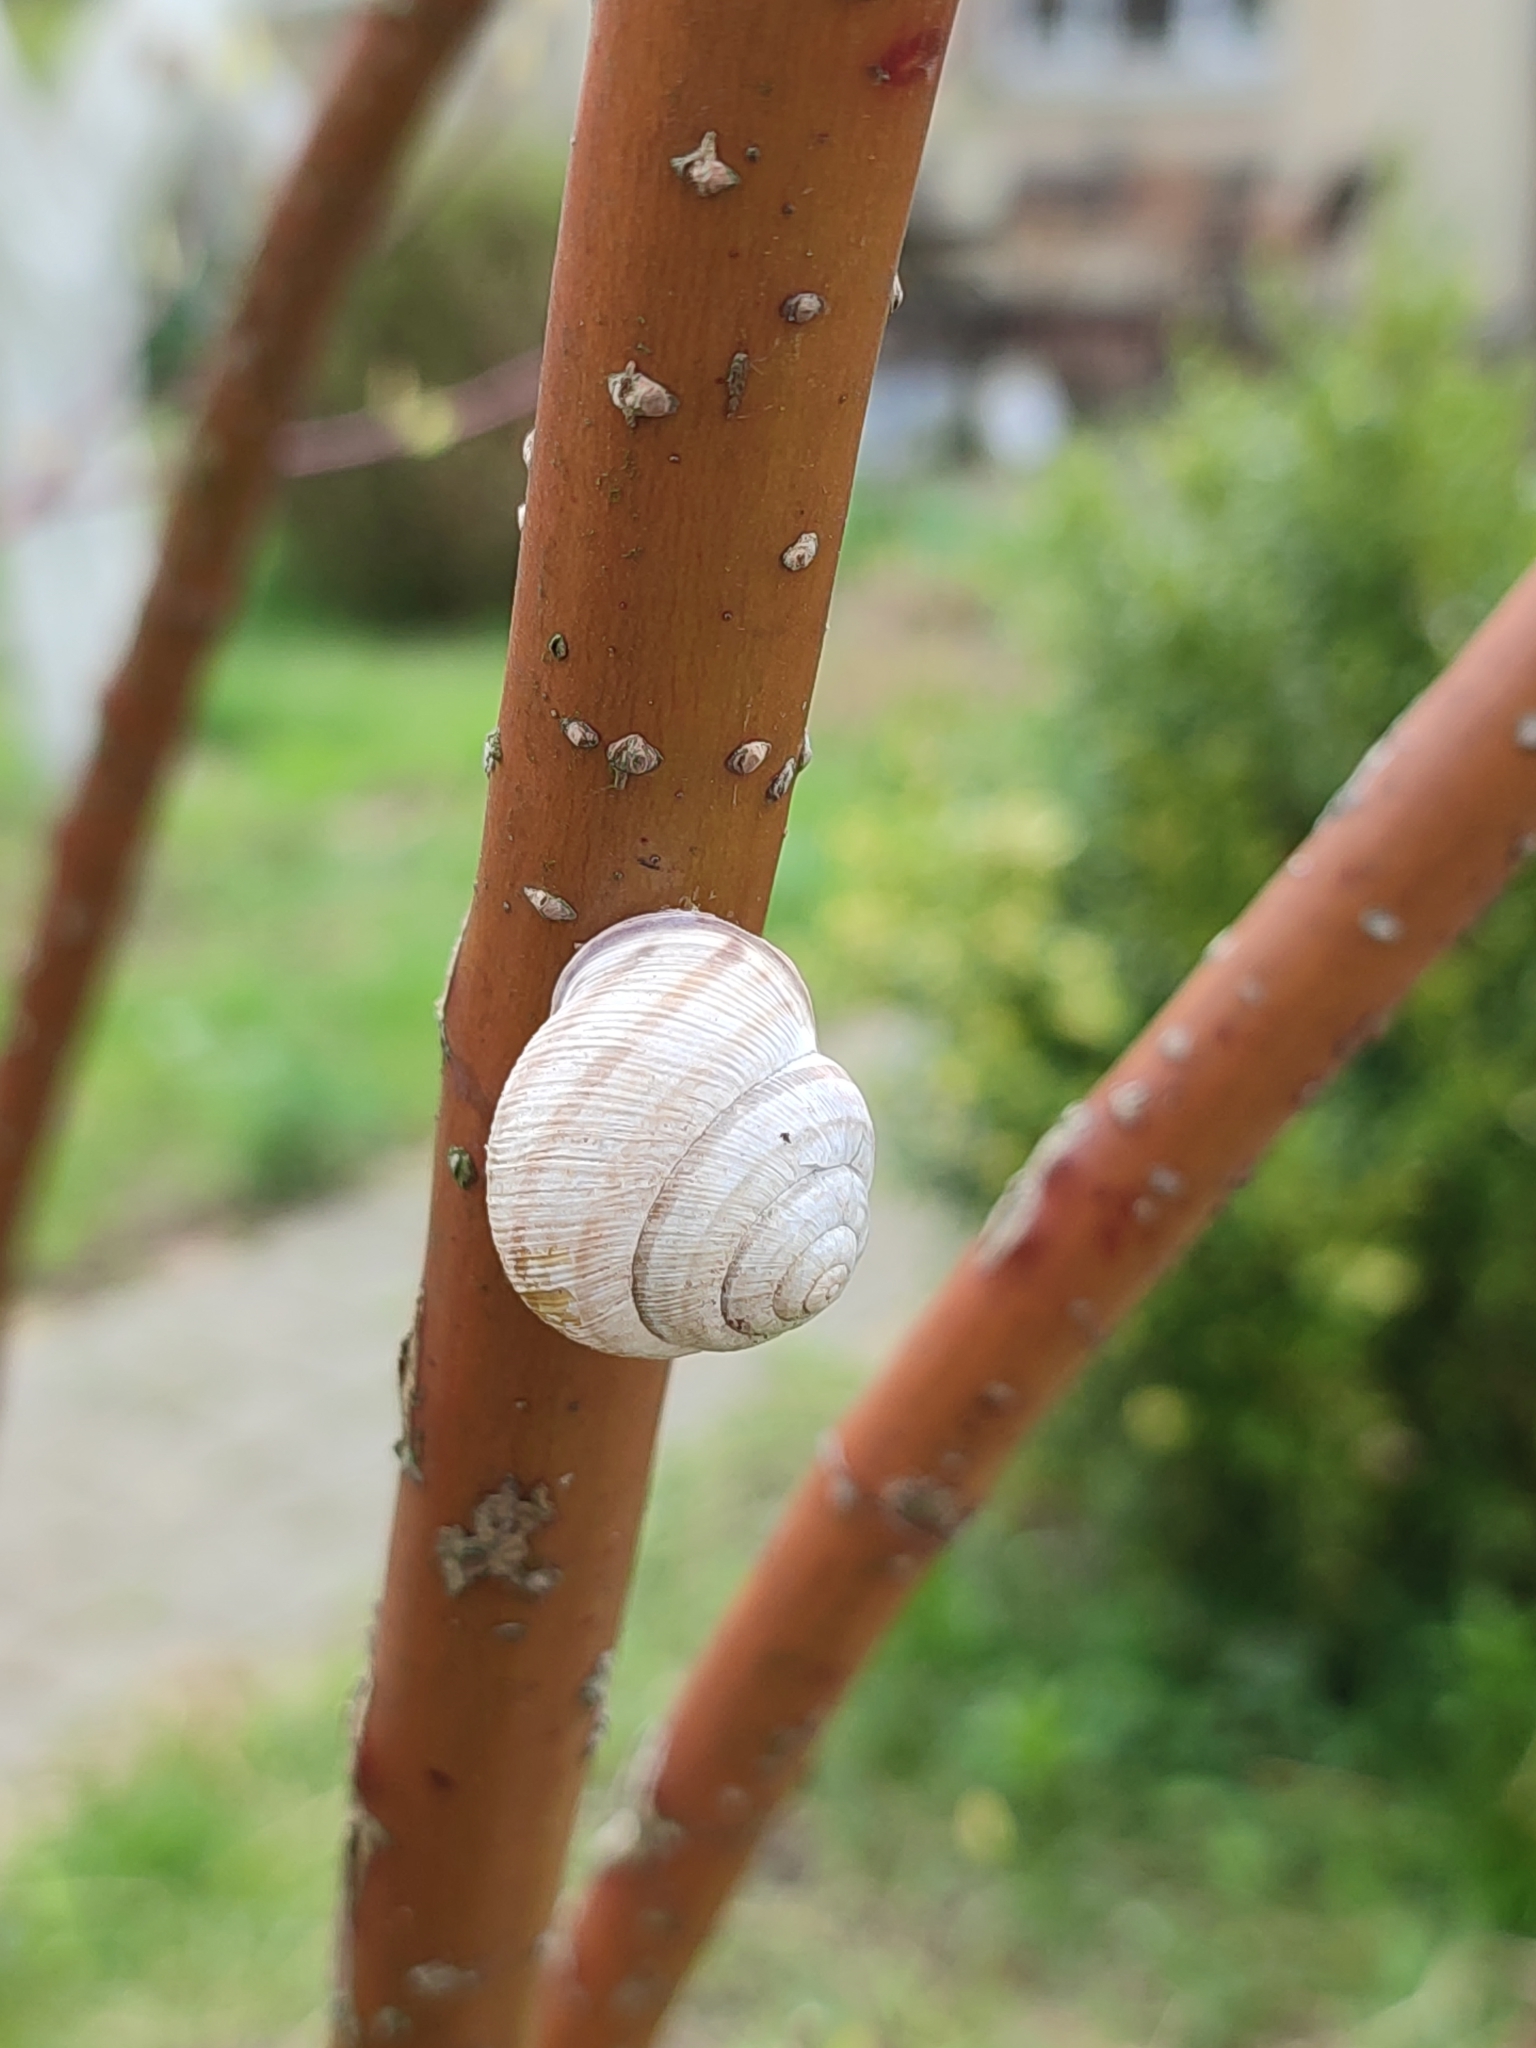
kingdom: Animalia
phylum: Mollusca
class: Gastropoda
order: Stylommatophora
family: Helicidae
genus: Caucasotachea
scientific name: Caucasotachea vindobonensis
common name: European helicid land snail
